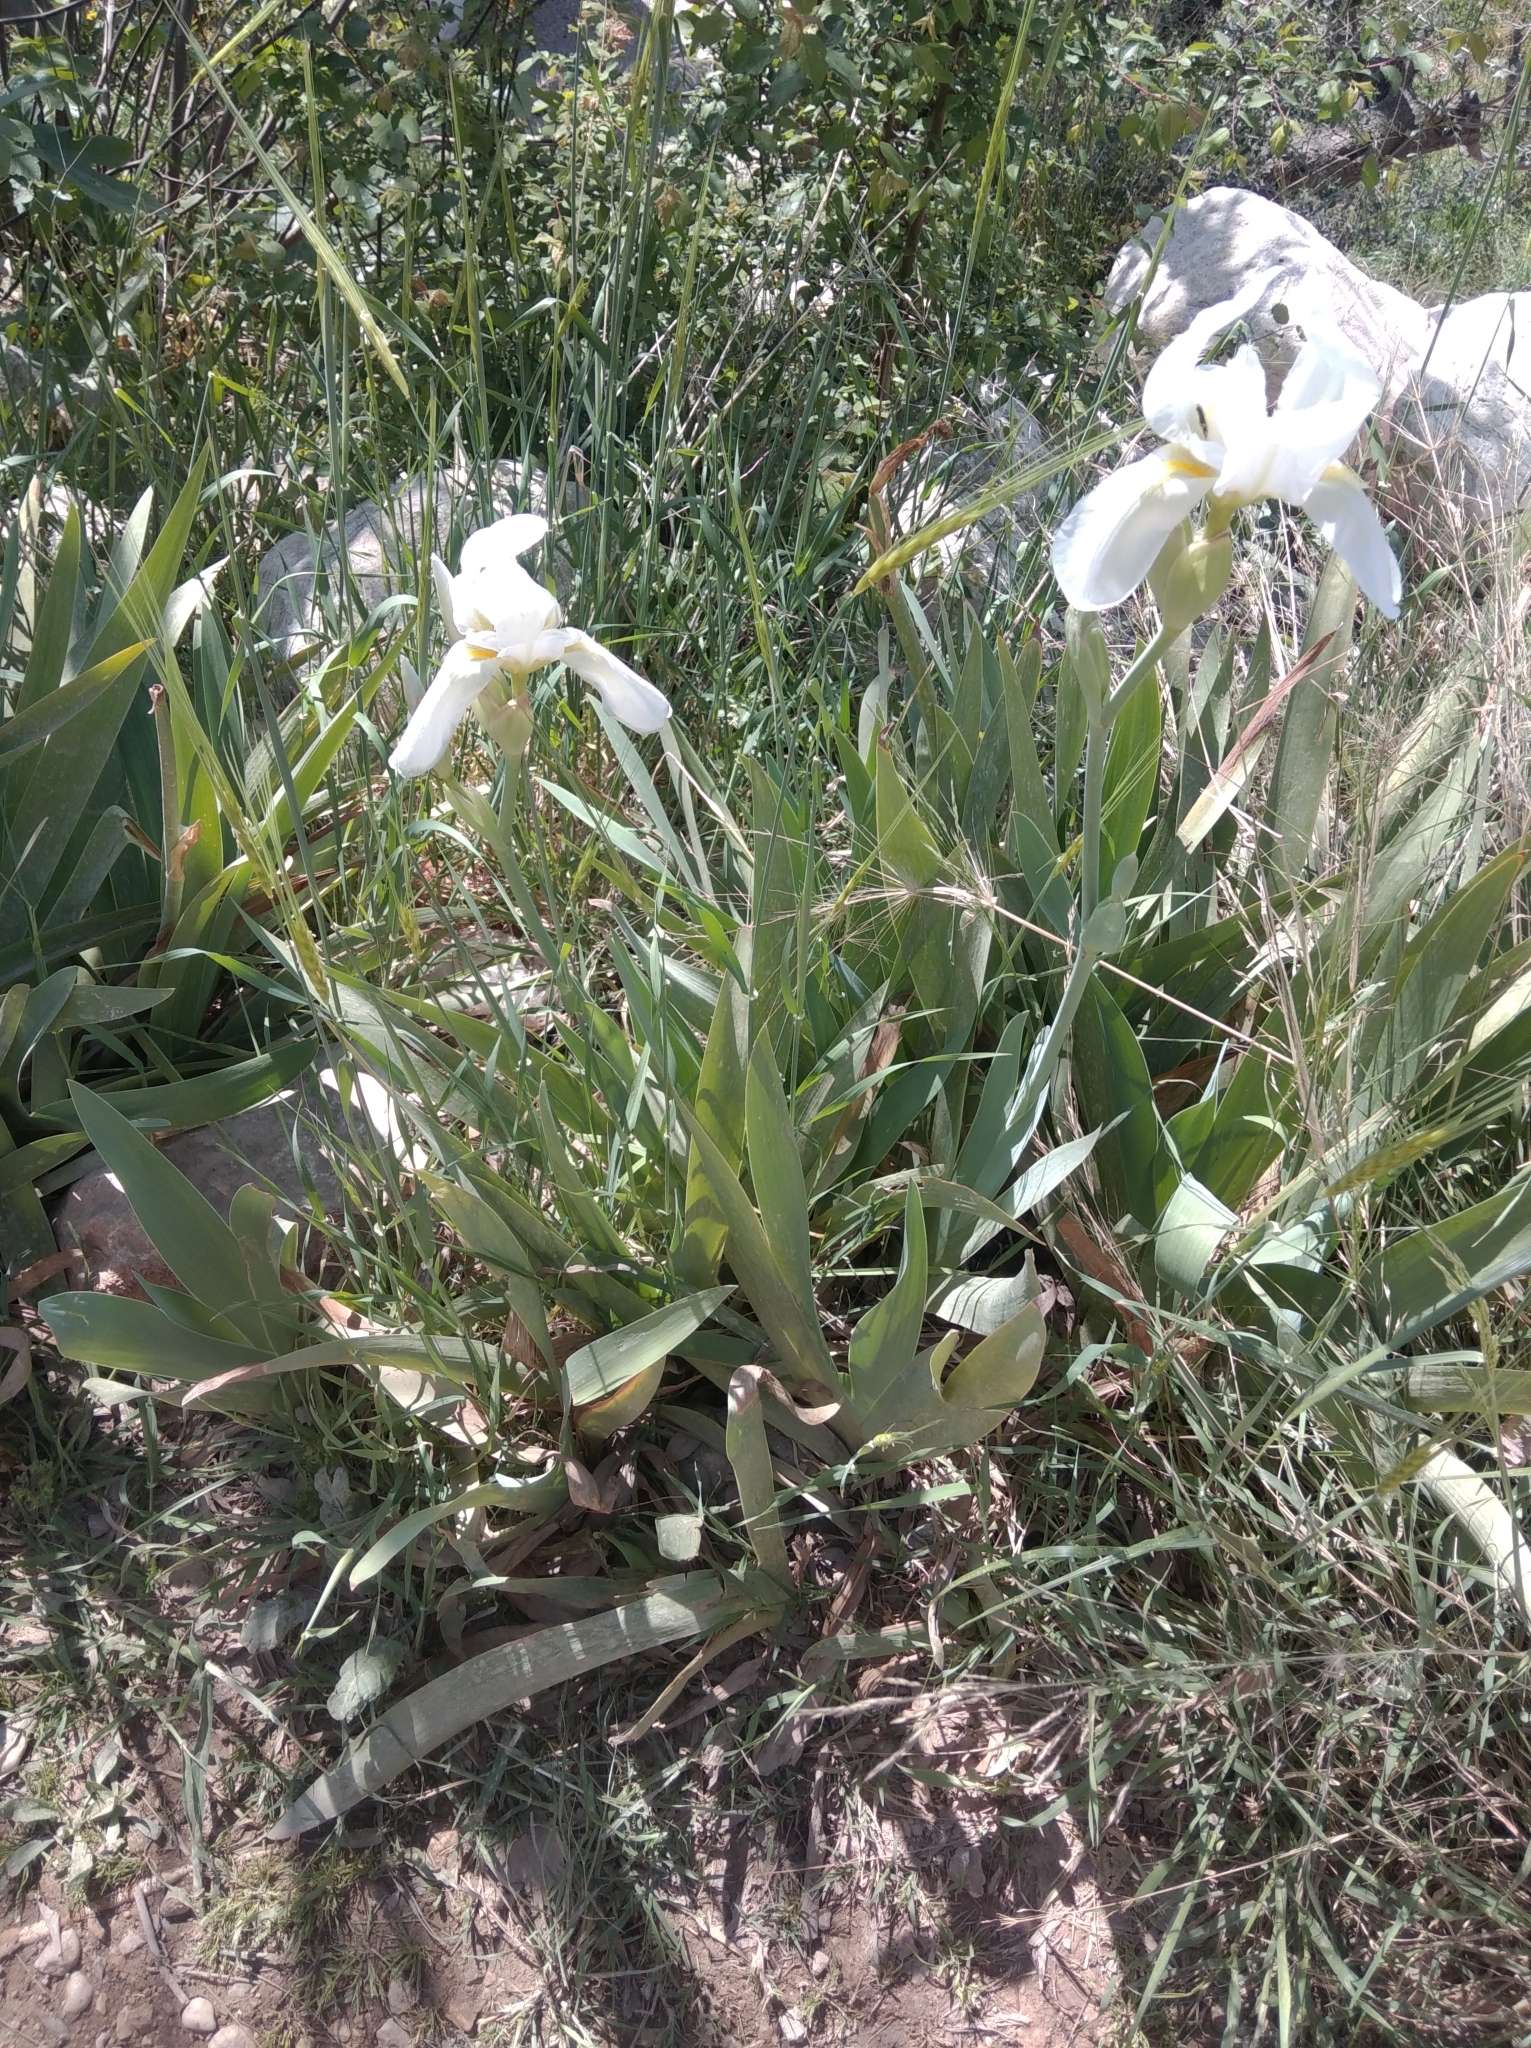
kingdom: Plantae
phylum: Tracheophyta
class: Liliopsida
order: Asparagales
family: Iridaceae
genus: Iris
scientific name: Iris florentina
